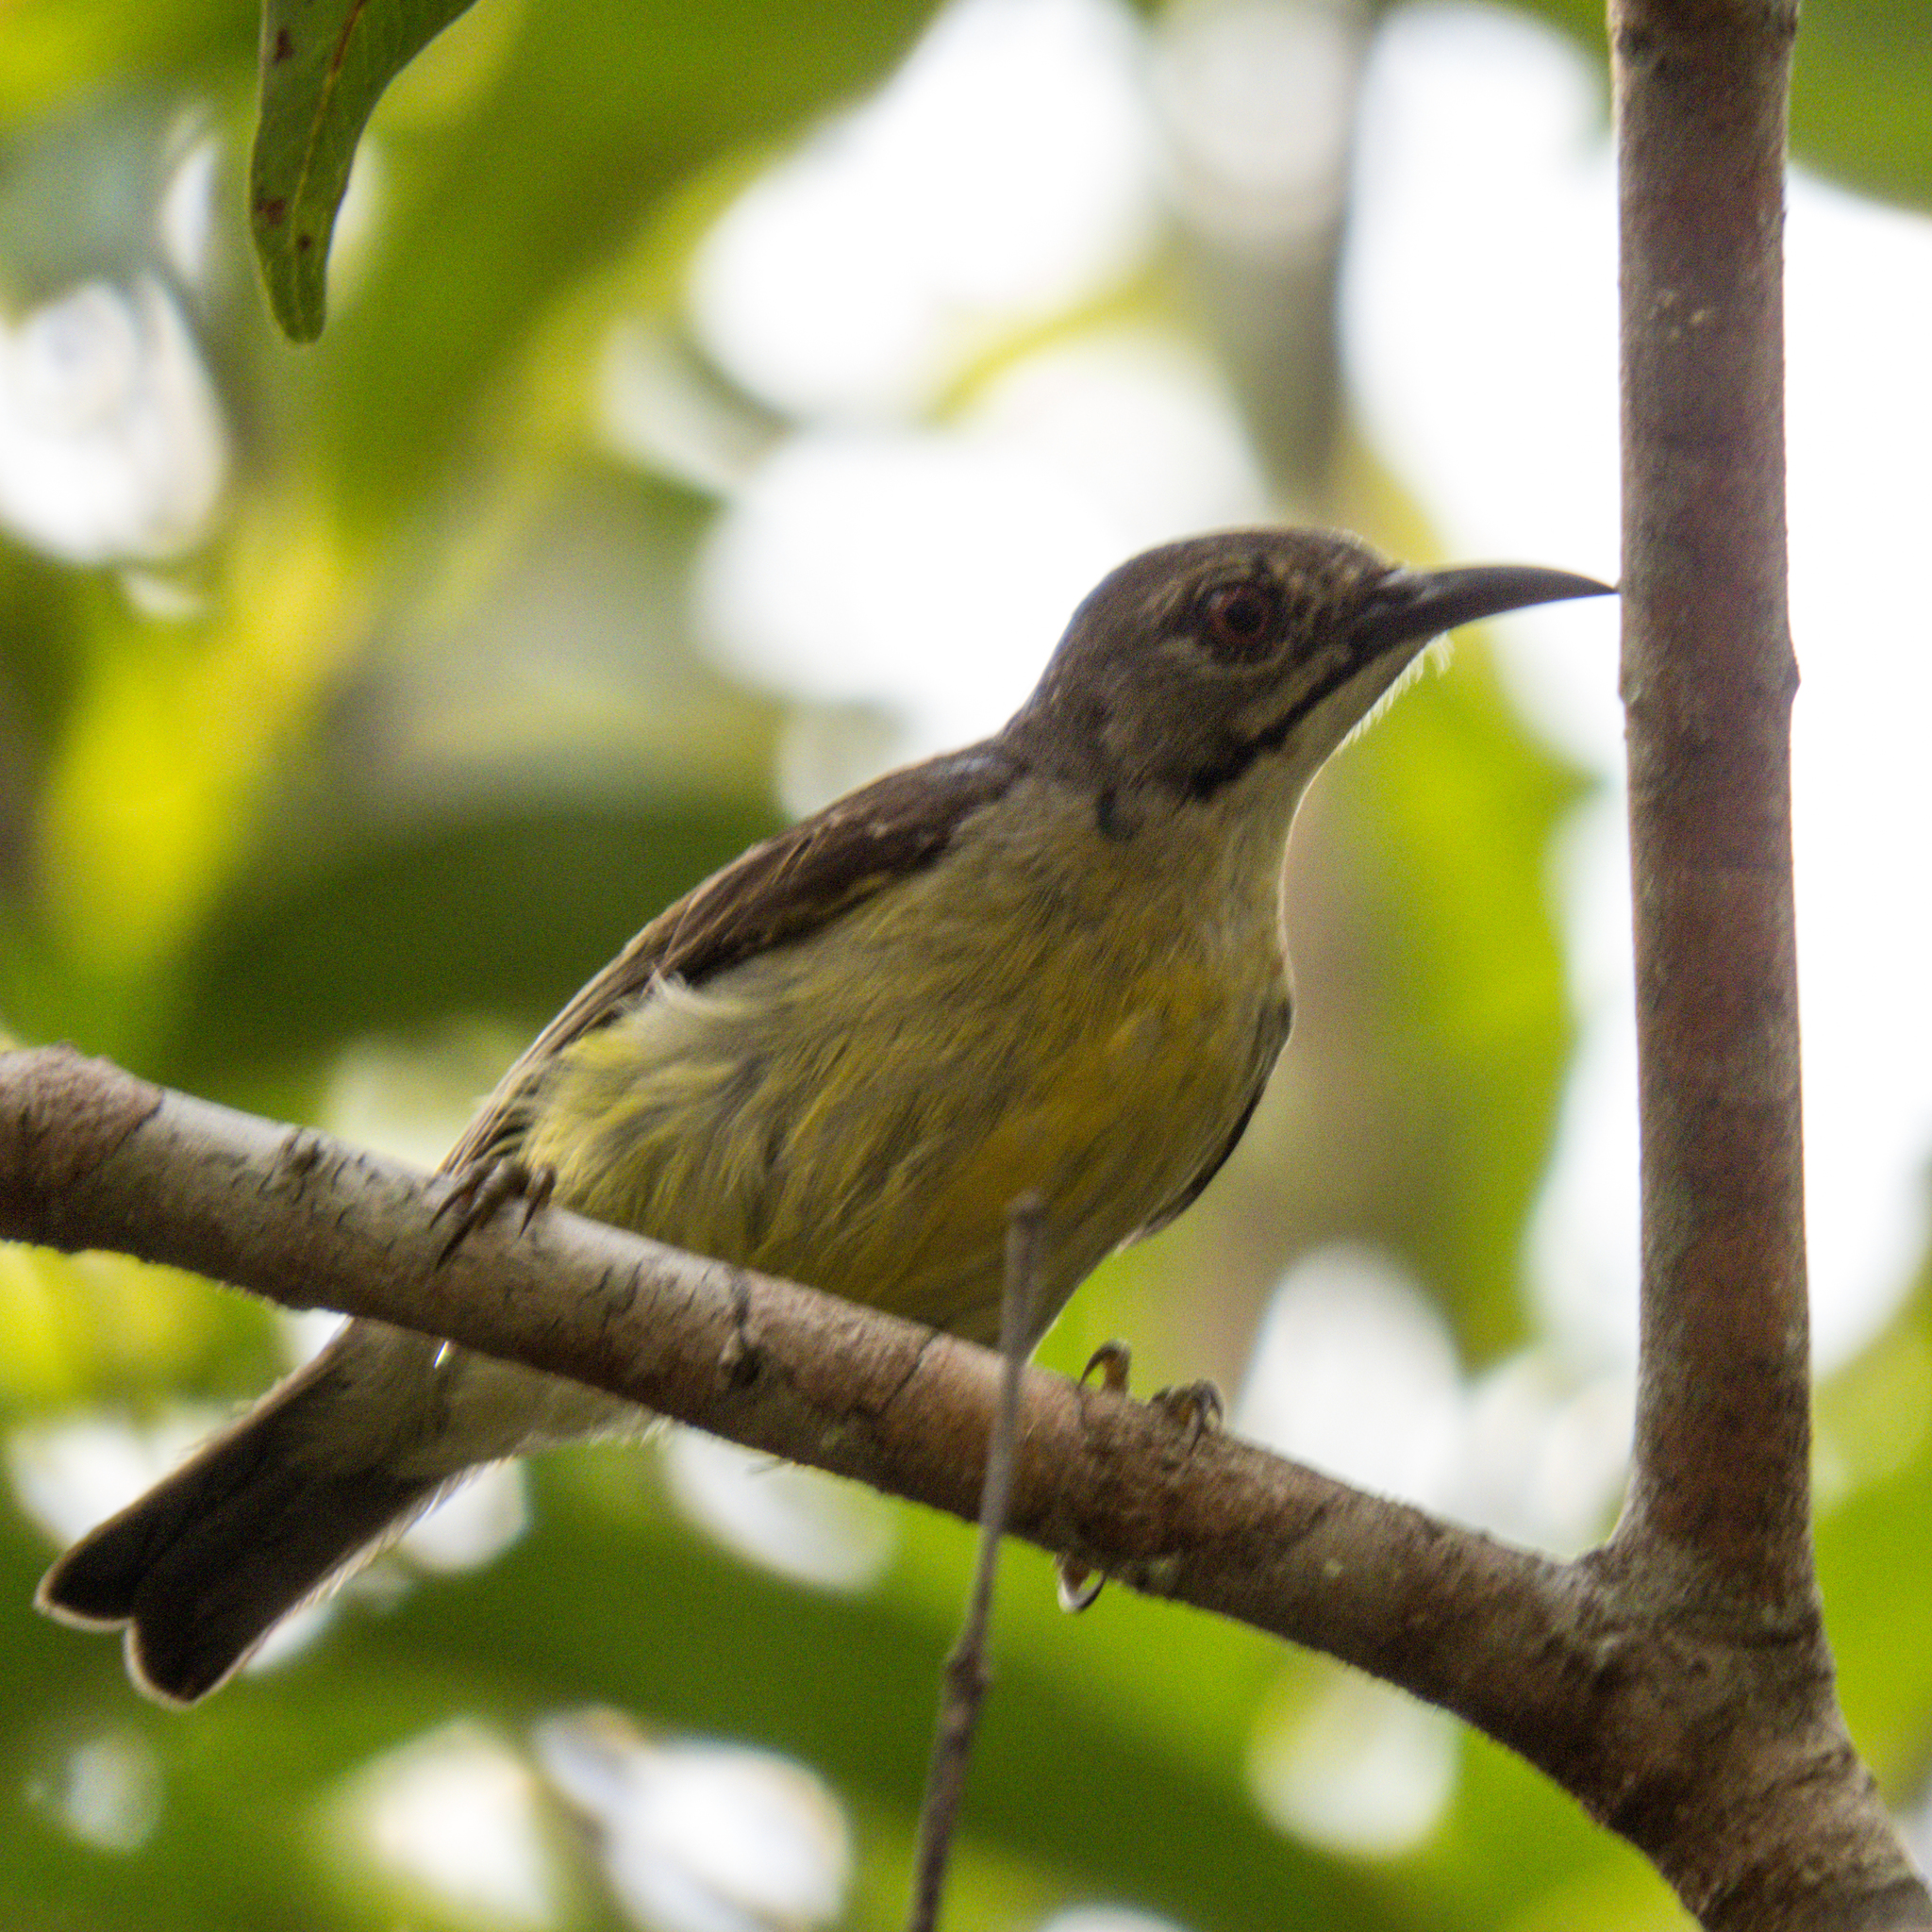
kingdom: Animalia
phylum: Chordata
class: Aves
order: Passeriformes
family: Nectariniidae
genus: Anthreptes
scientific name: Anthreptes malacensis
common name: Brown-throated sunbird
